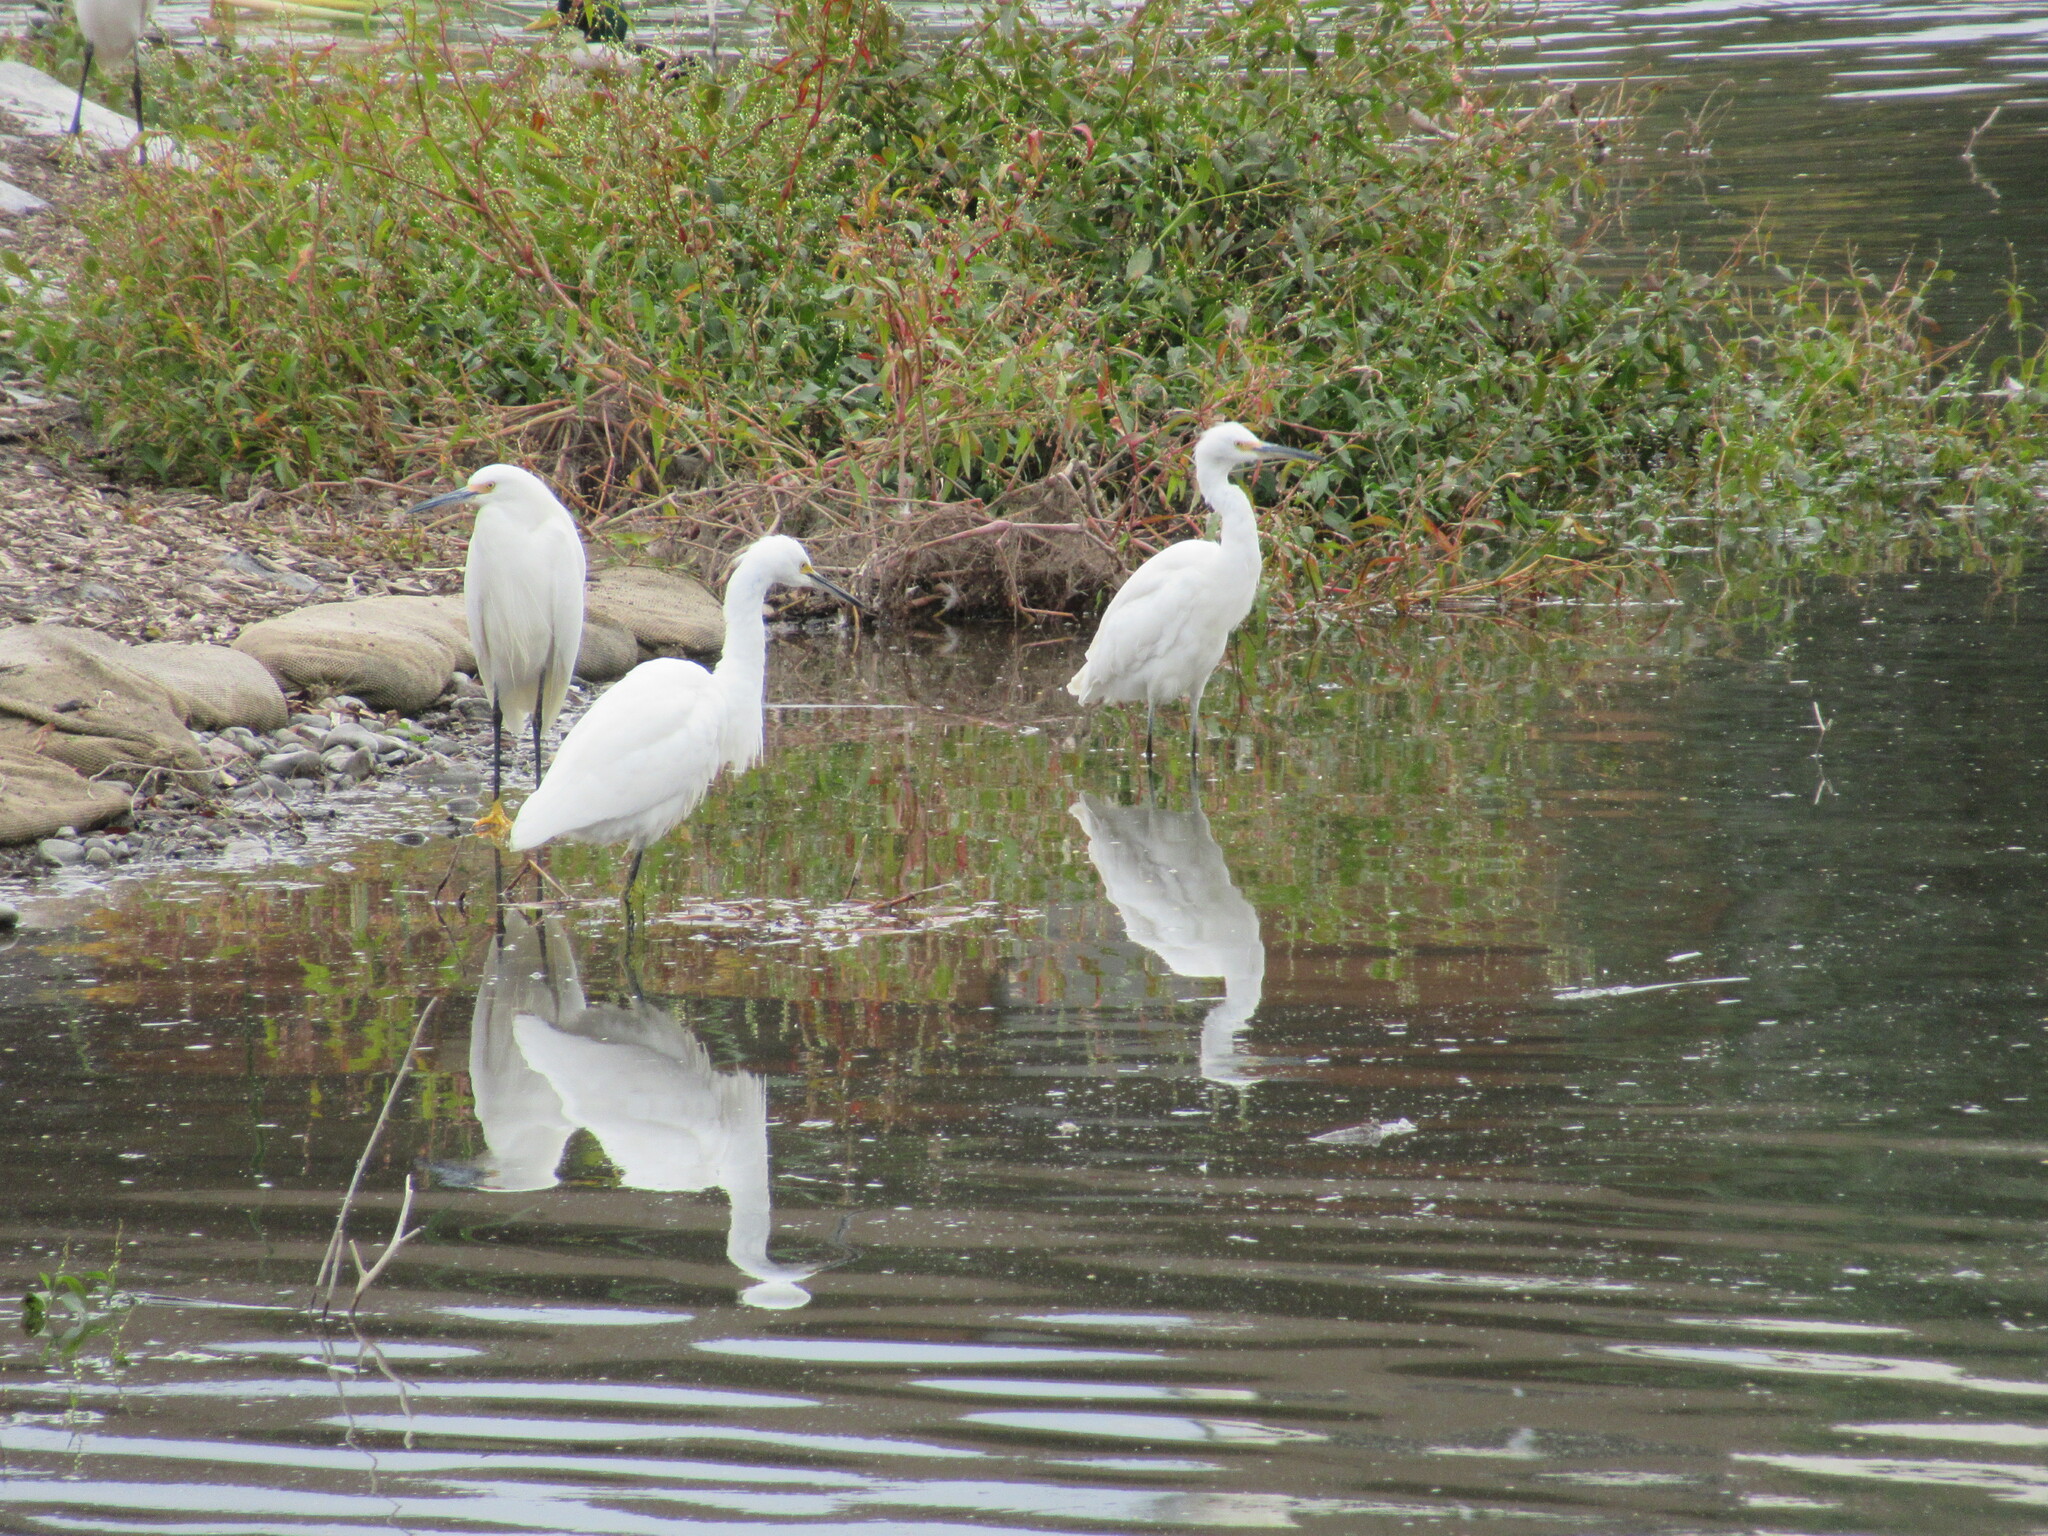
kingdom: Animalia
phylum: Chordata
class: Aves
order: Pelecaniformes
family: Ardeidae
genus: Egretta
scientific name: Egretta thula
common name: Snowy egret
